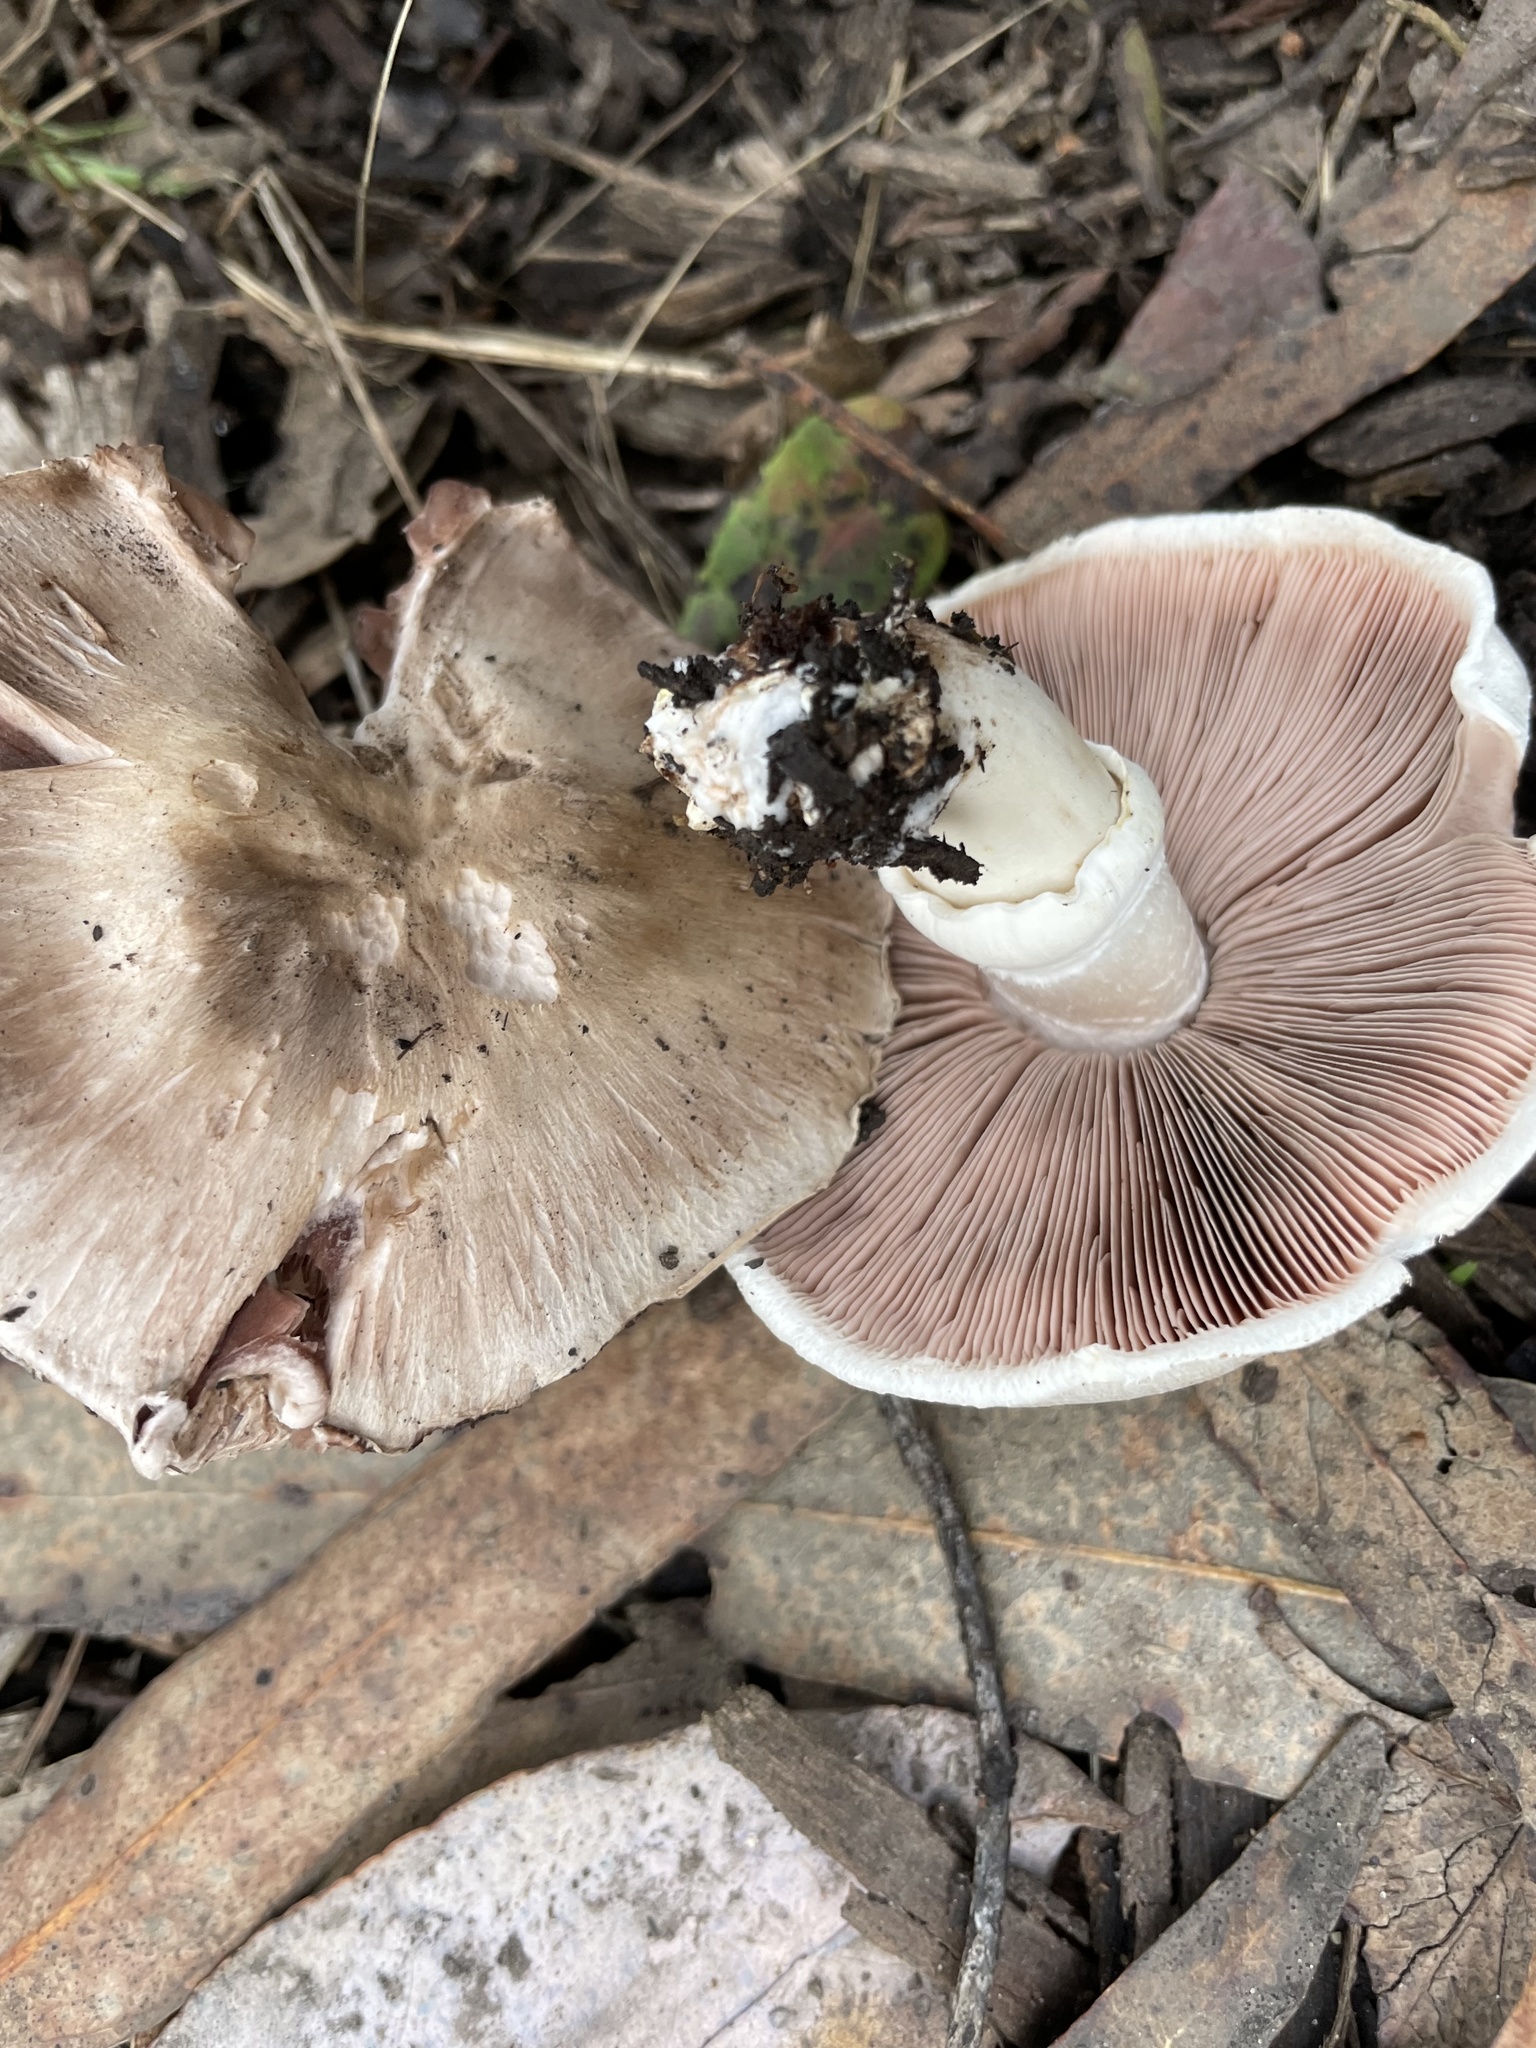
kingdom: Fungi
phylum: Basidiomycota
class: Agaricomycetes
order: Agaricales
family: Agaricaceae
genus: Agaricus
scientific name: Agaricus californicus
